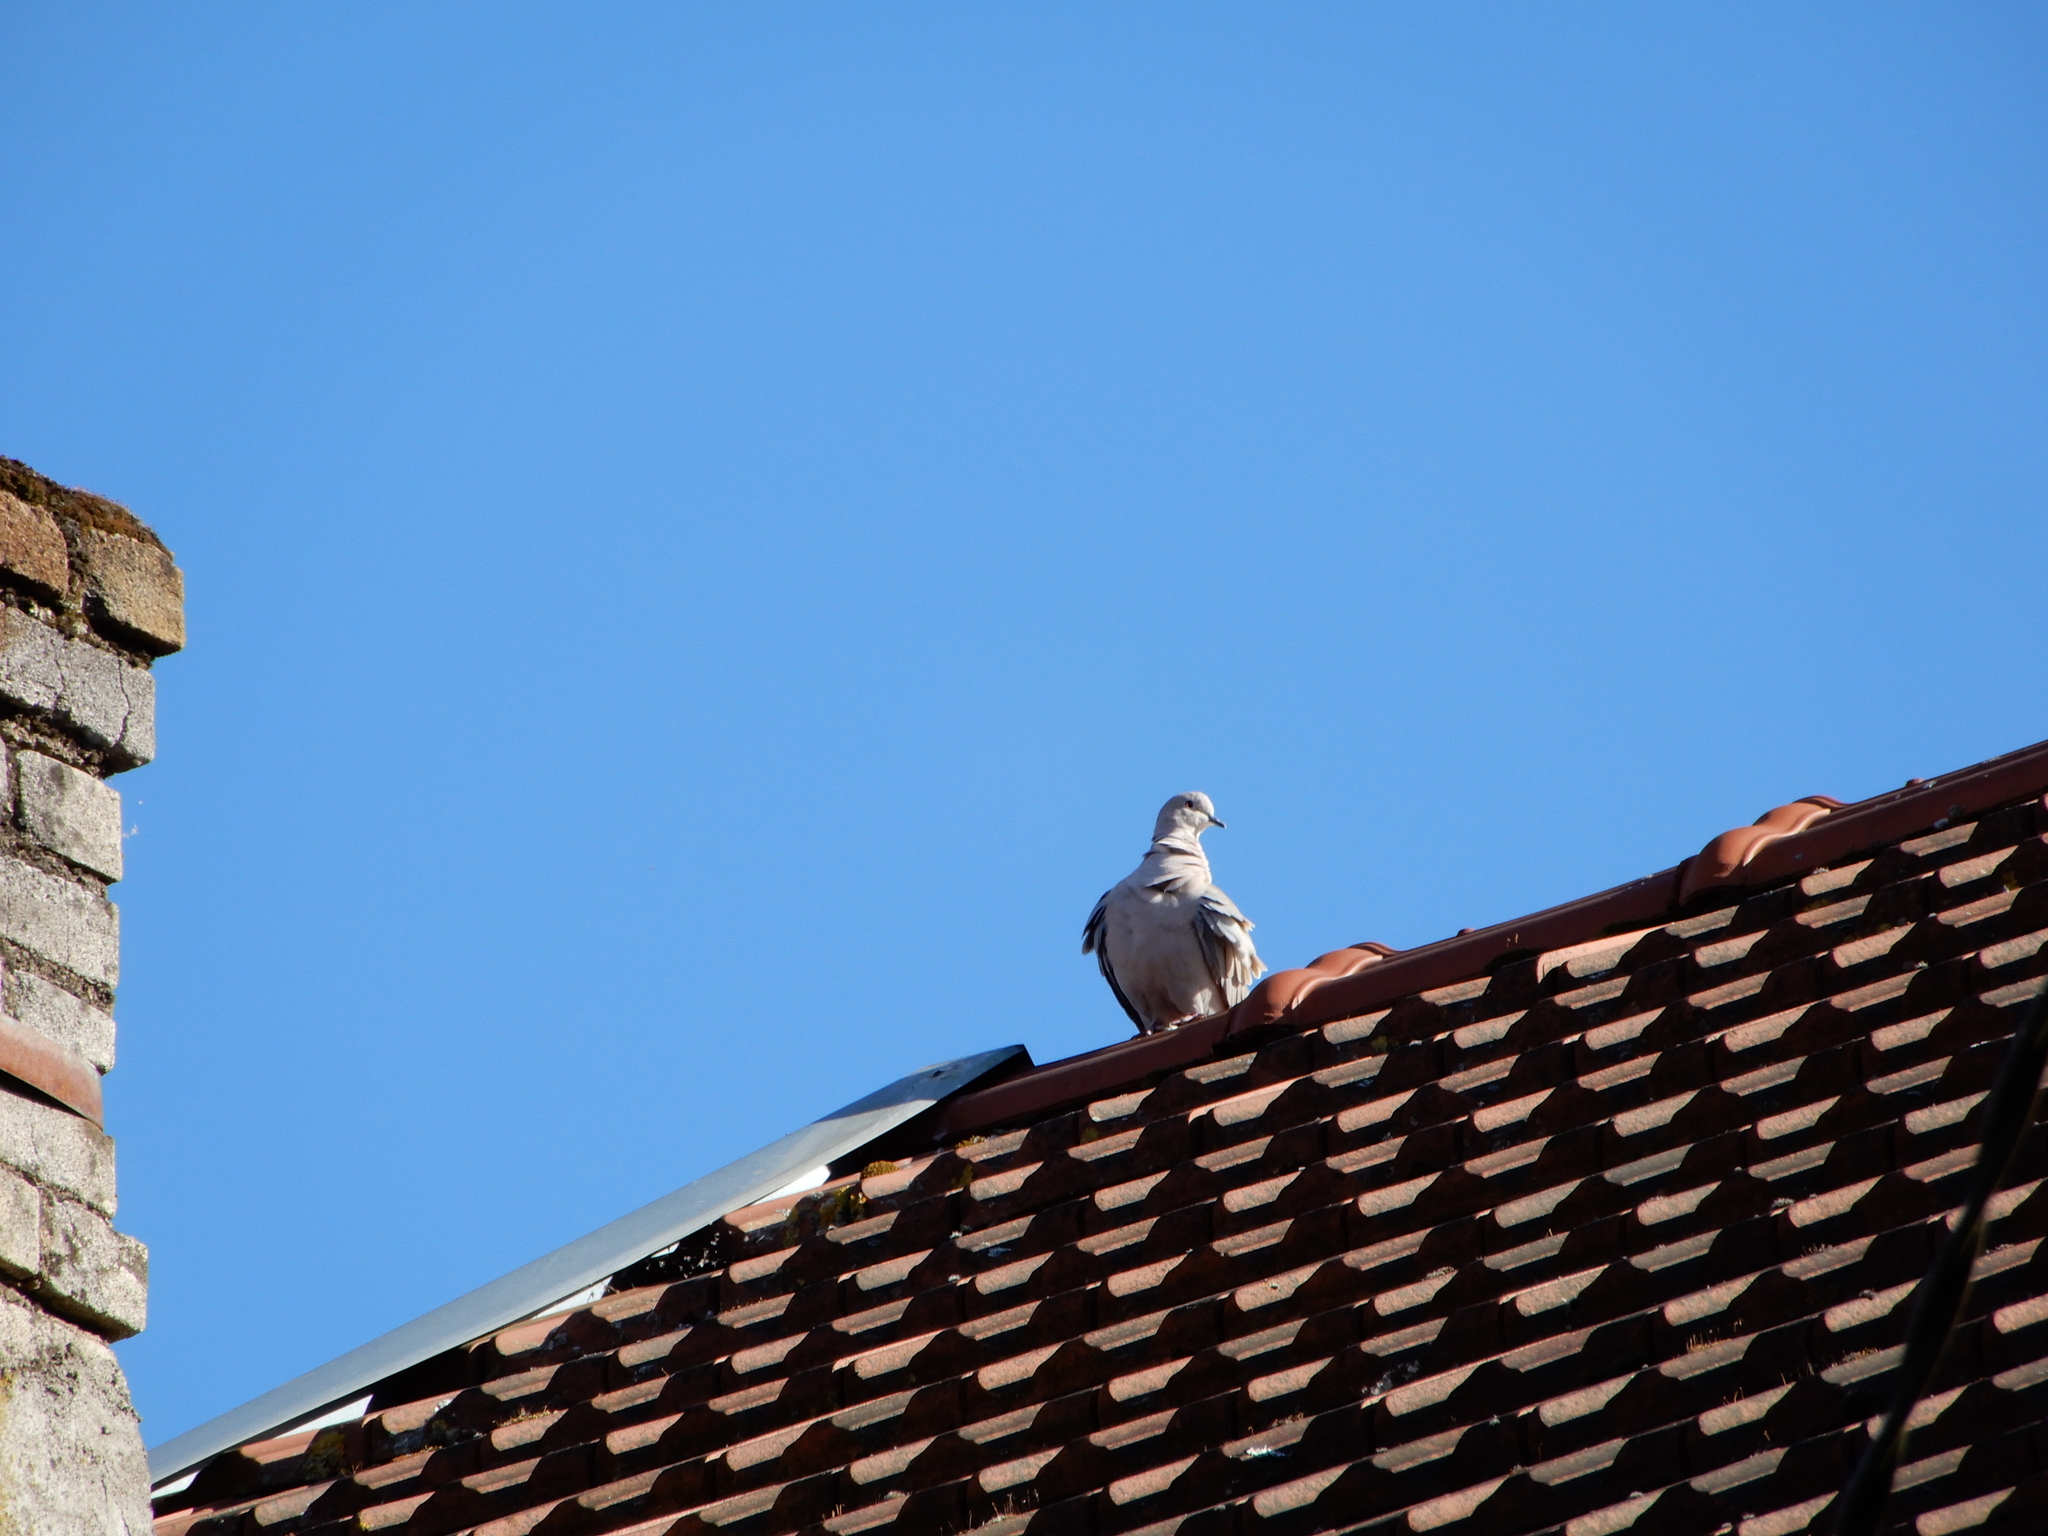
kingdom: Animalia
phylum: Chordata
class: Aves
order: Columbiformes
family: Columbidae
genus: Streptopelia
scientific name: Streptopelia decaocto
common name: Eurasian collared dove
